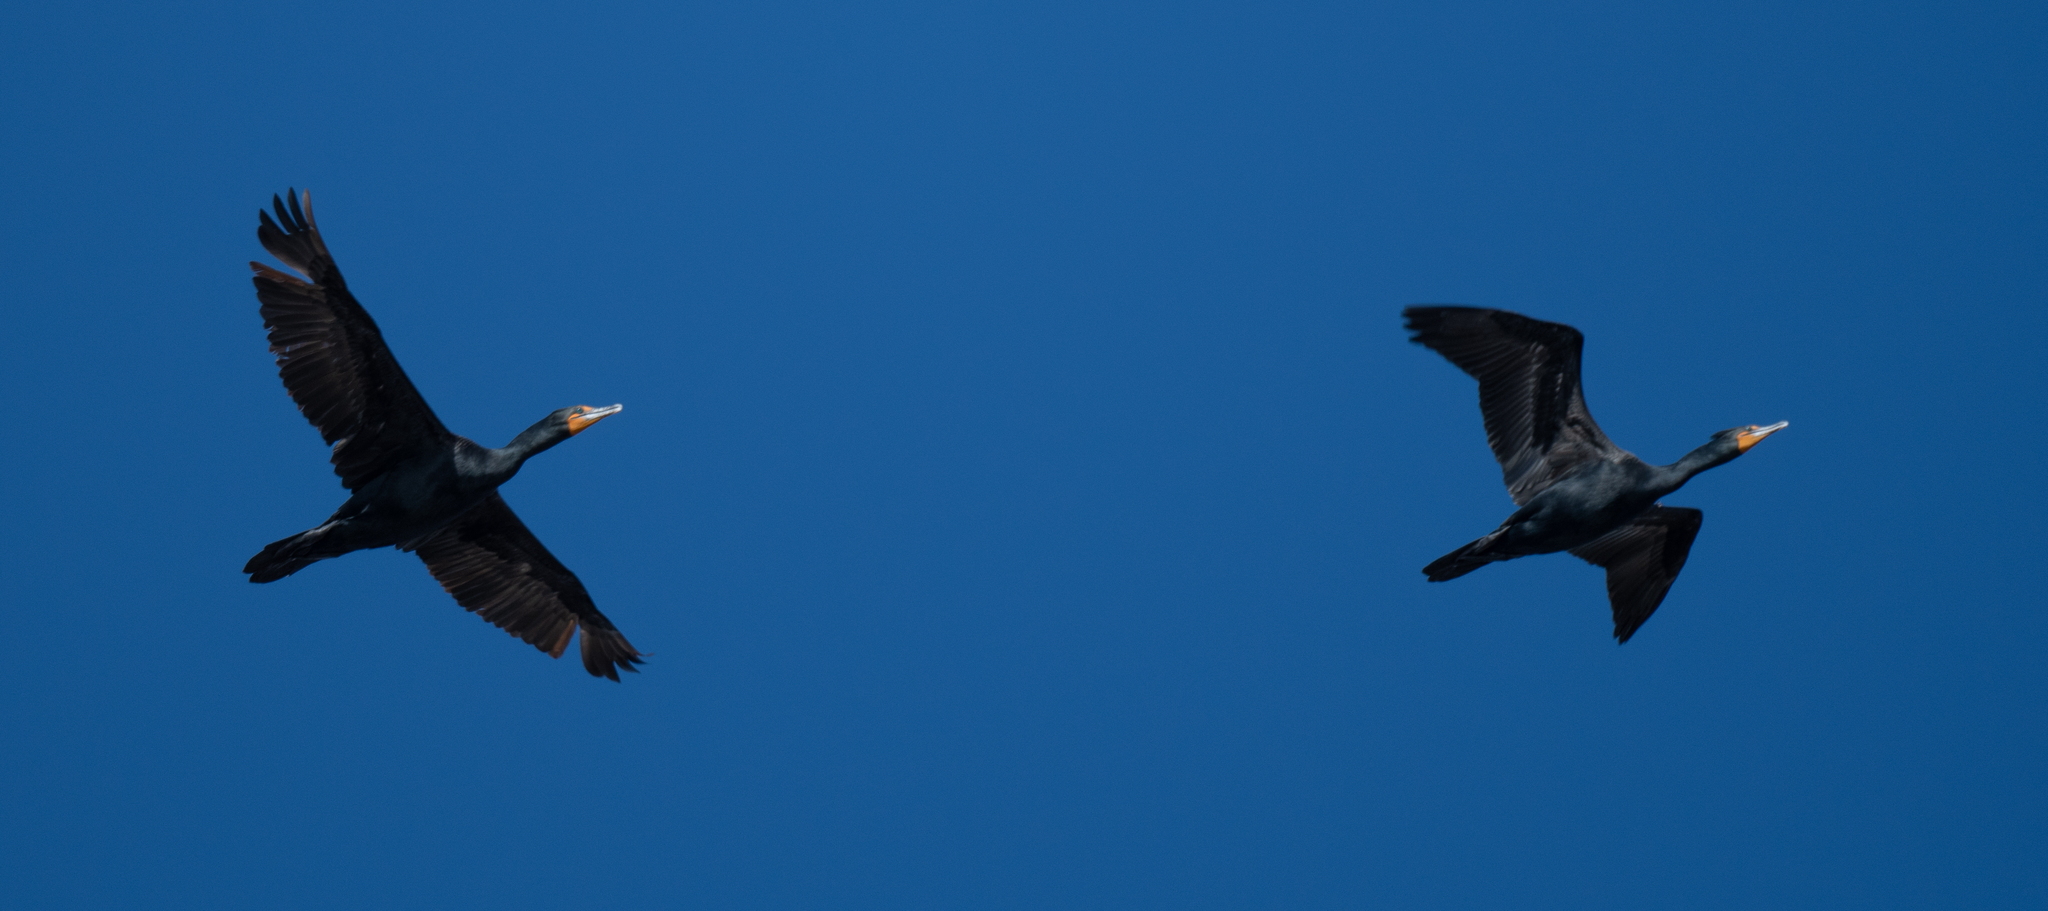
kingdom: Animalia
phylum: Chordata
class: Aves
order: Suliformes
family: Phalacrocoracidae
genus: Phalacrocorax
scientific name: Phalacrocorax auritus
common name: Double-crested cormorant
